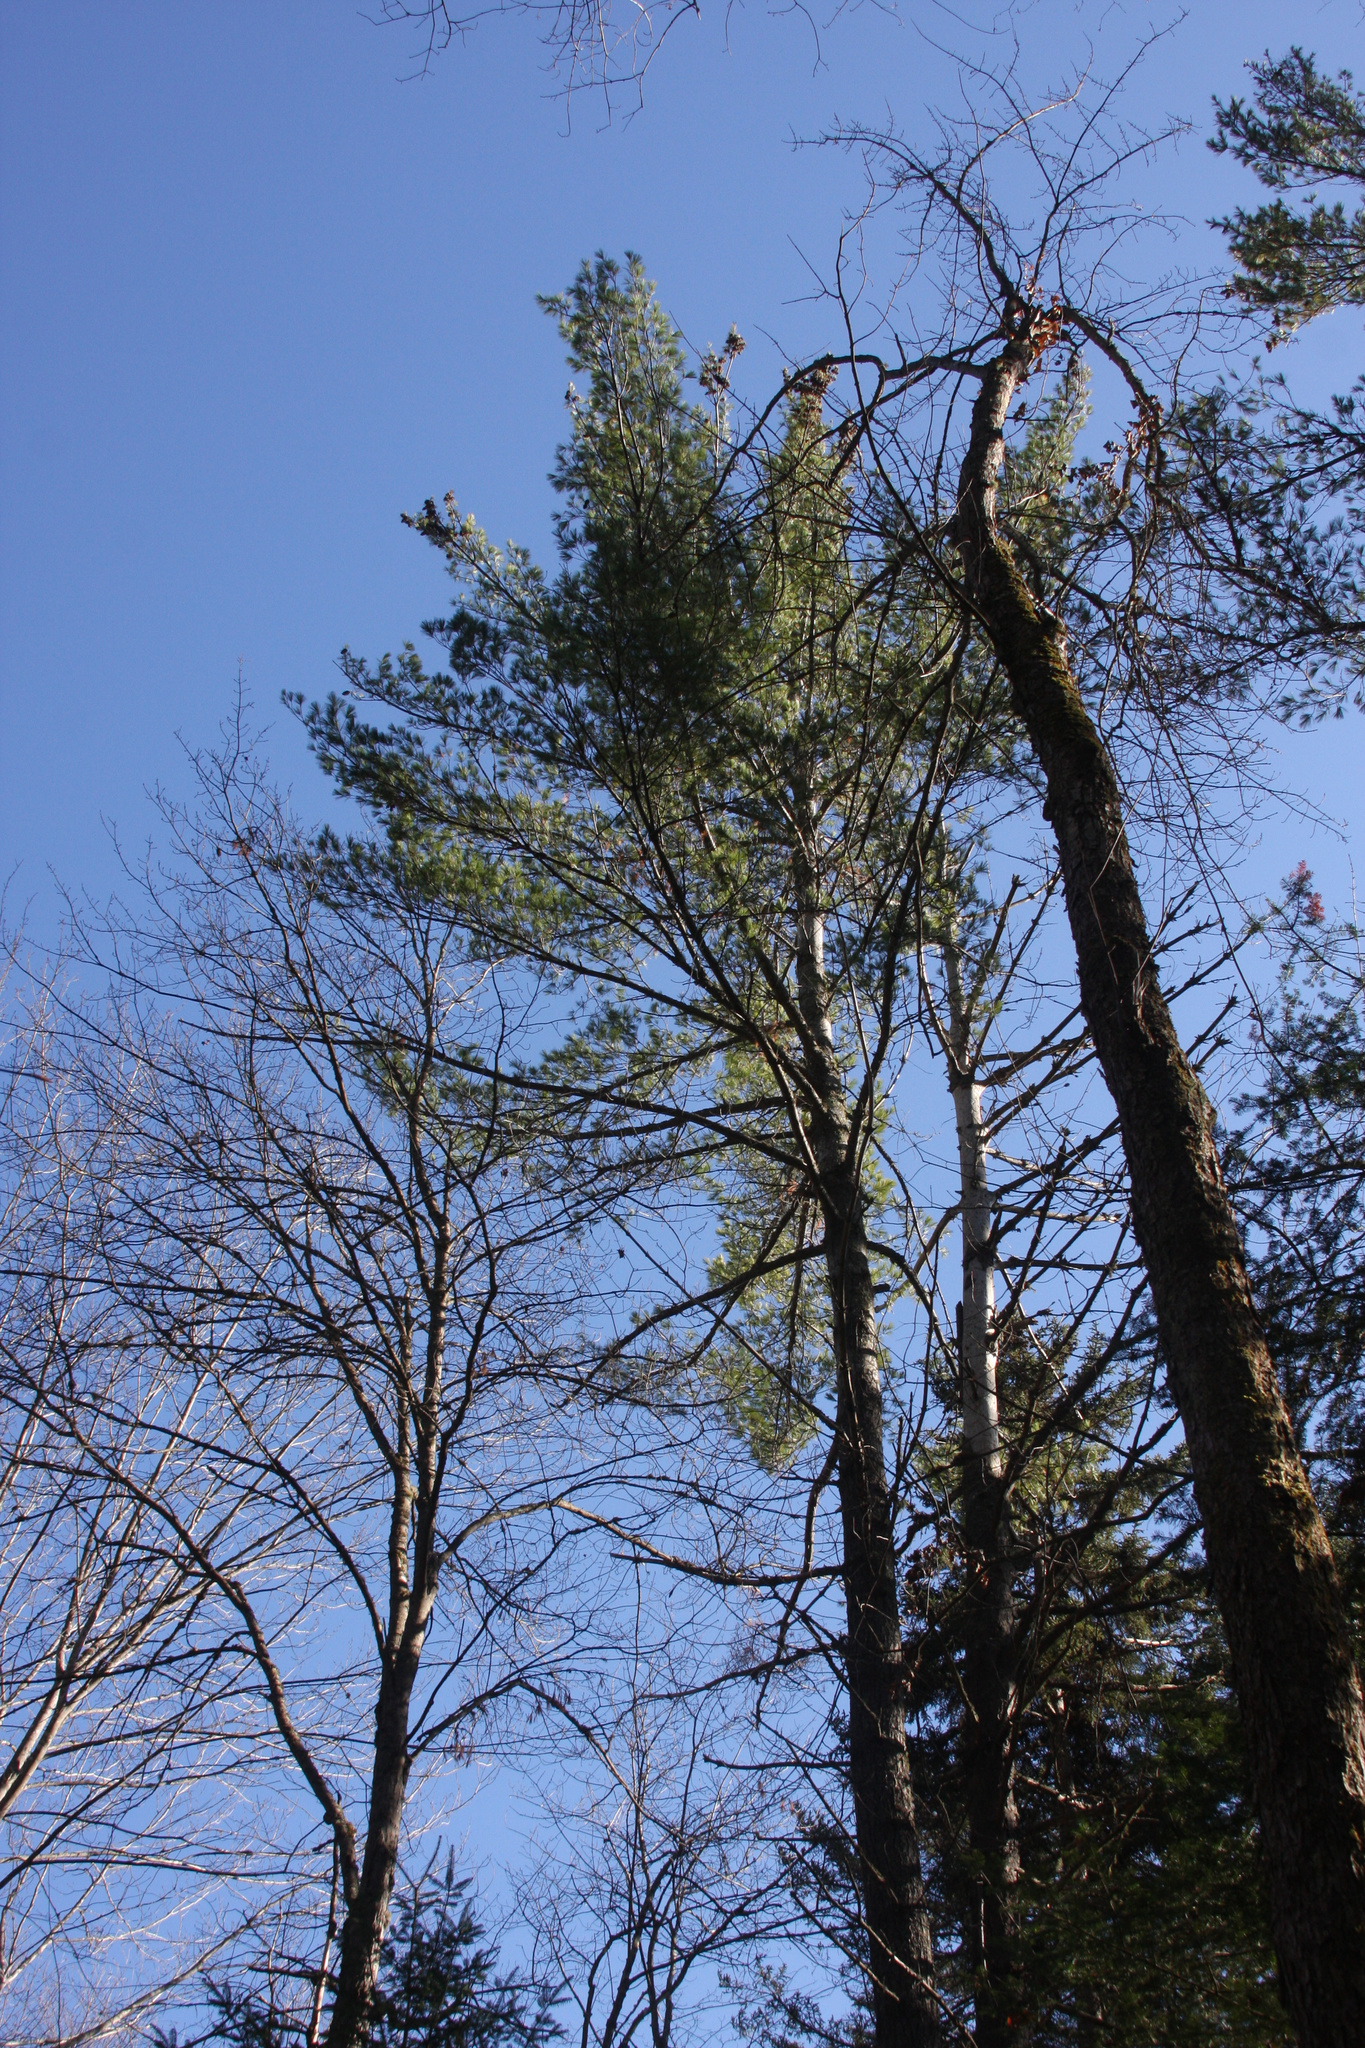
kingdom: Plantae
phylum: Tracheophyta
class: Pinopsida
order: Pinales
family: Pinaceae
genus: Pinus
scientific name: Pinus strobus
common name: Weymouth pine
